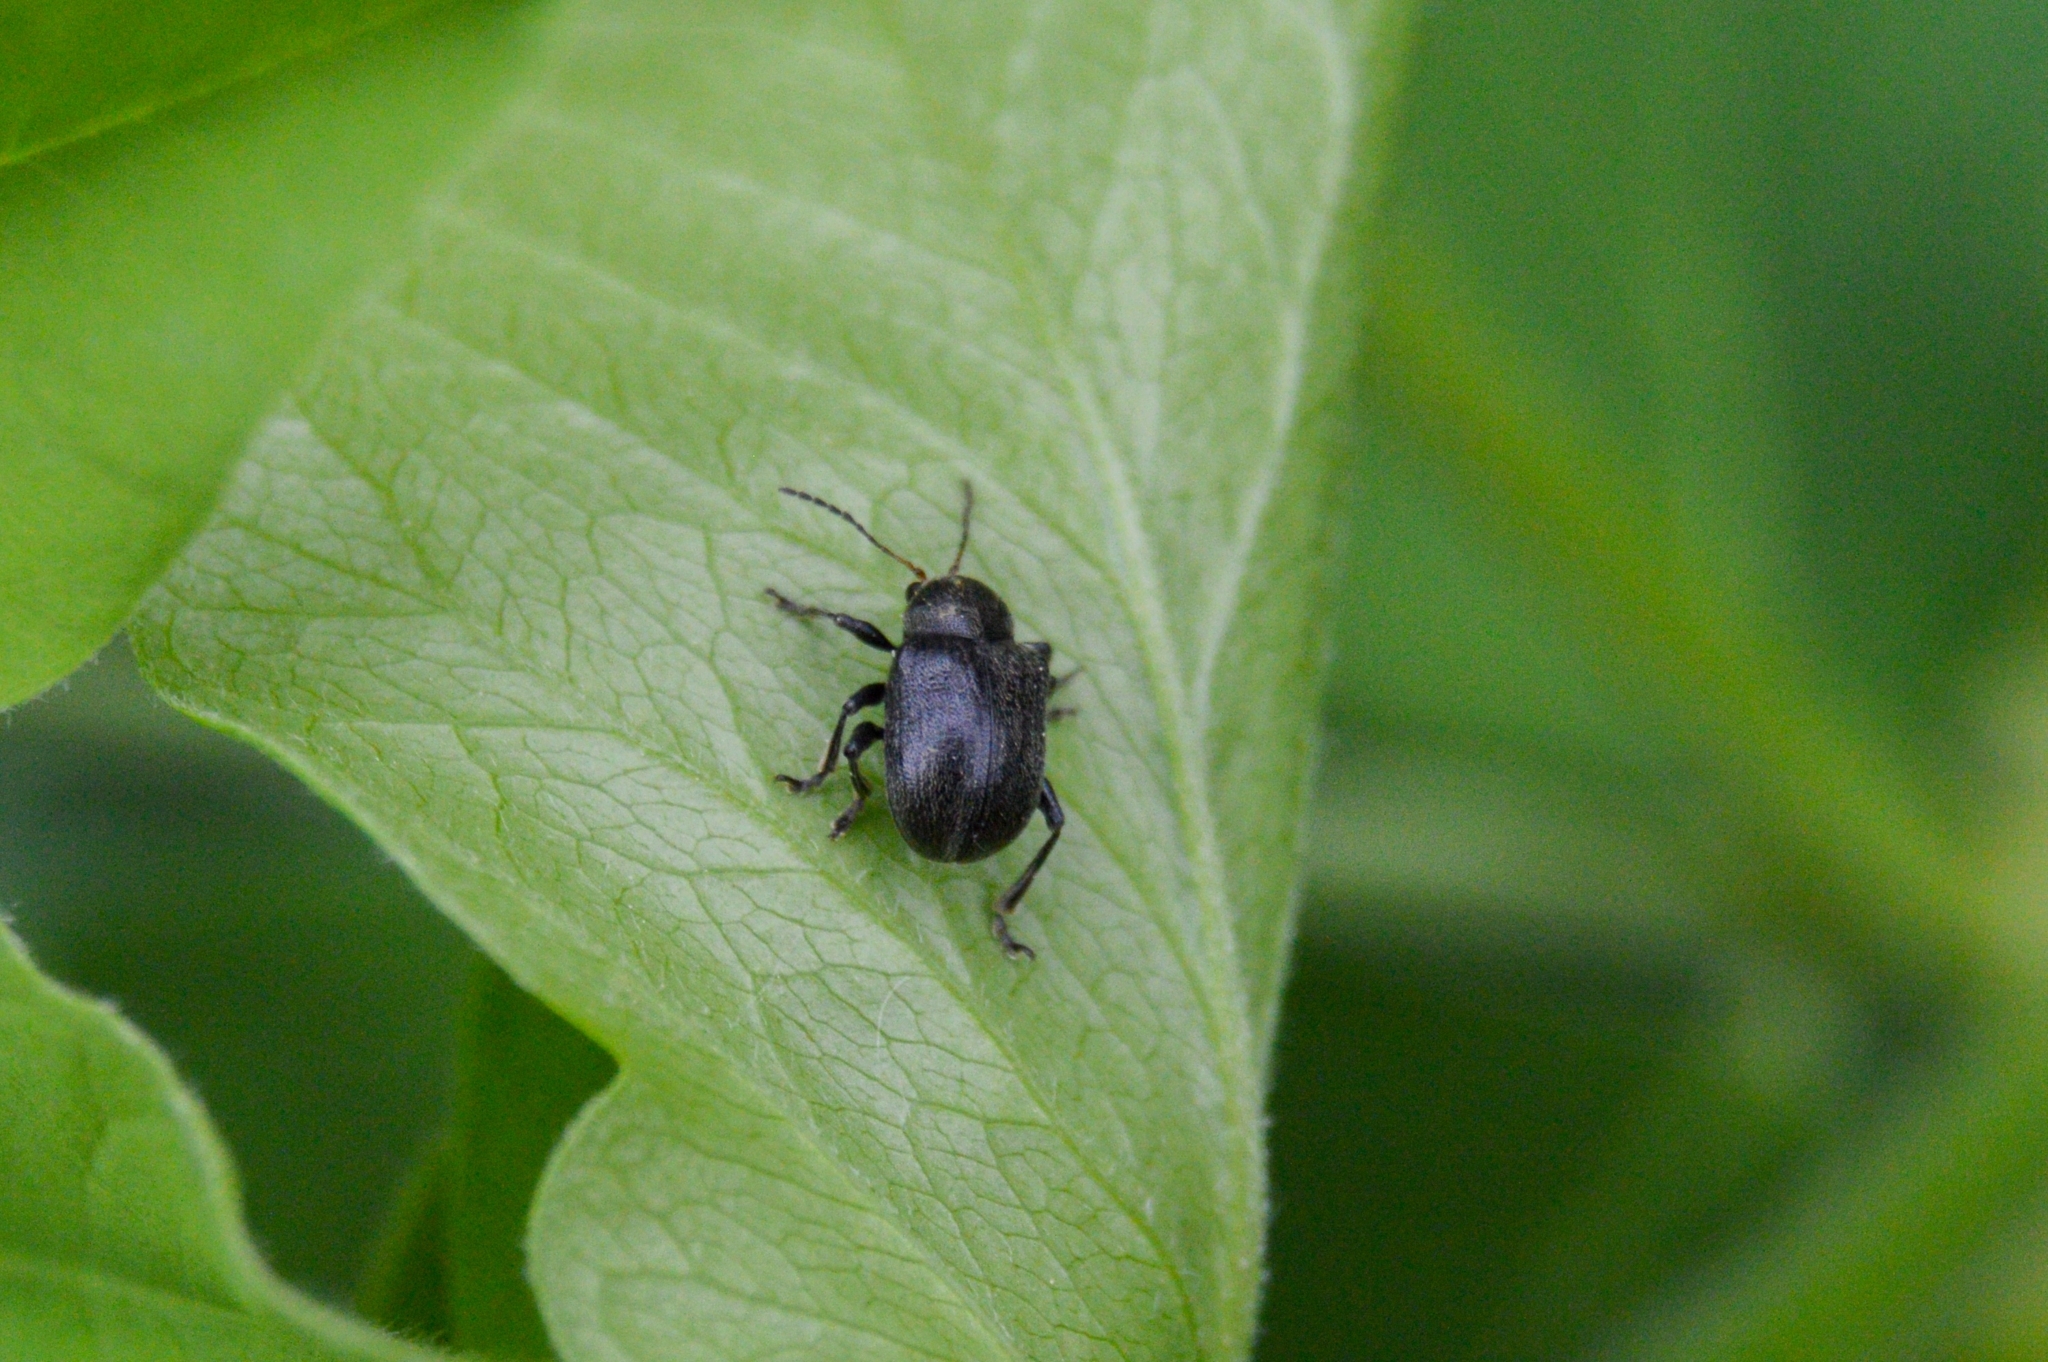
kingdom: Animalia
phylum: Arthropoda
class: Insecta
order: Coleoptera
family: Chrysomelidae
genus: Bromius
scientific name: Bromius obscurus
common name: Western grape rootworm
